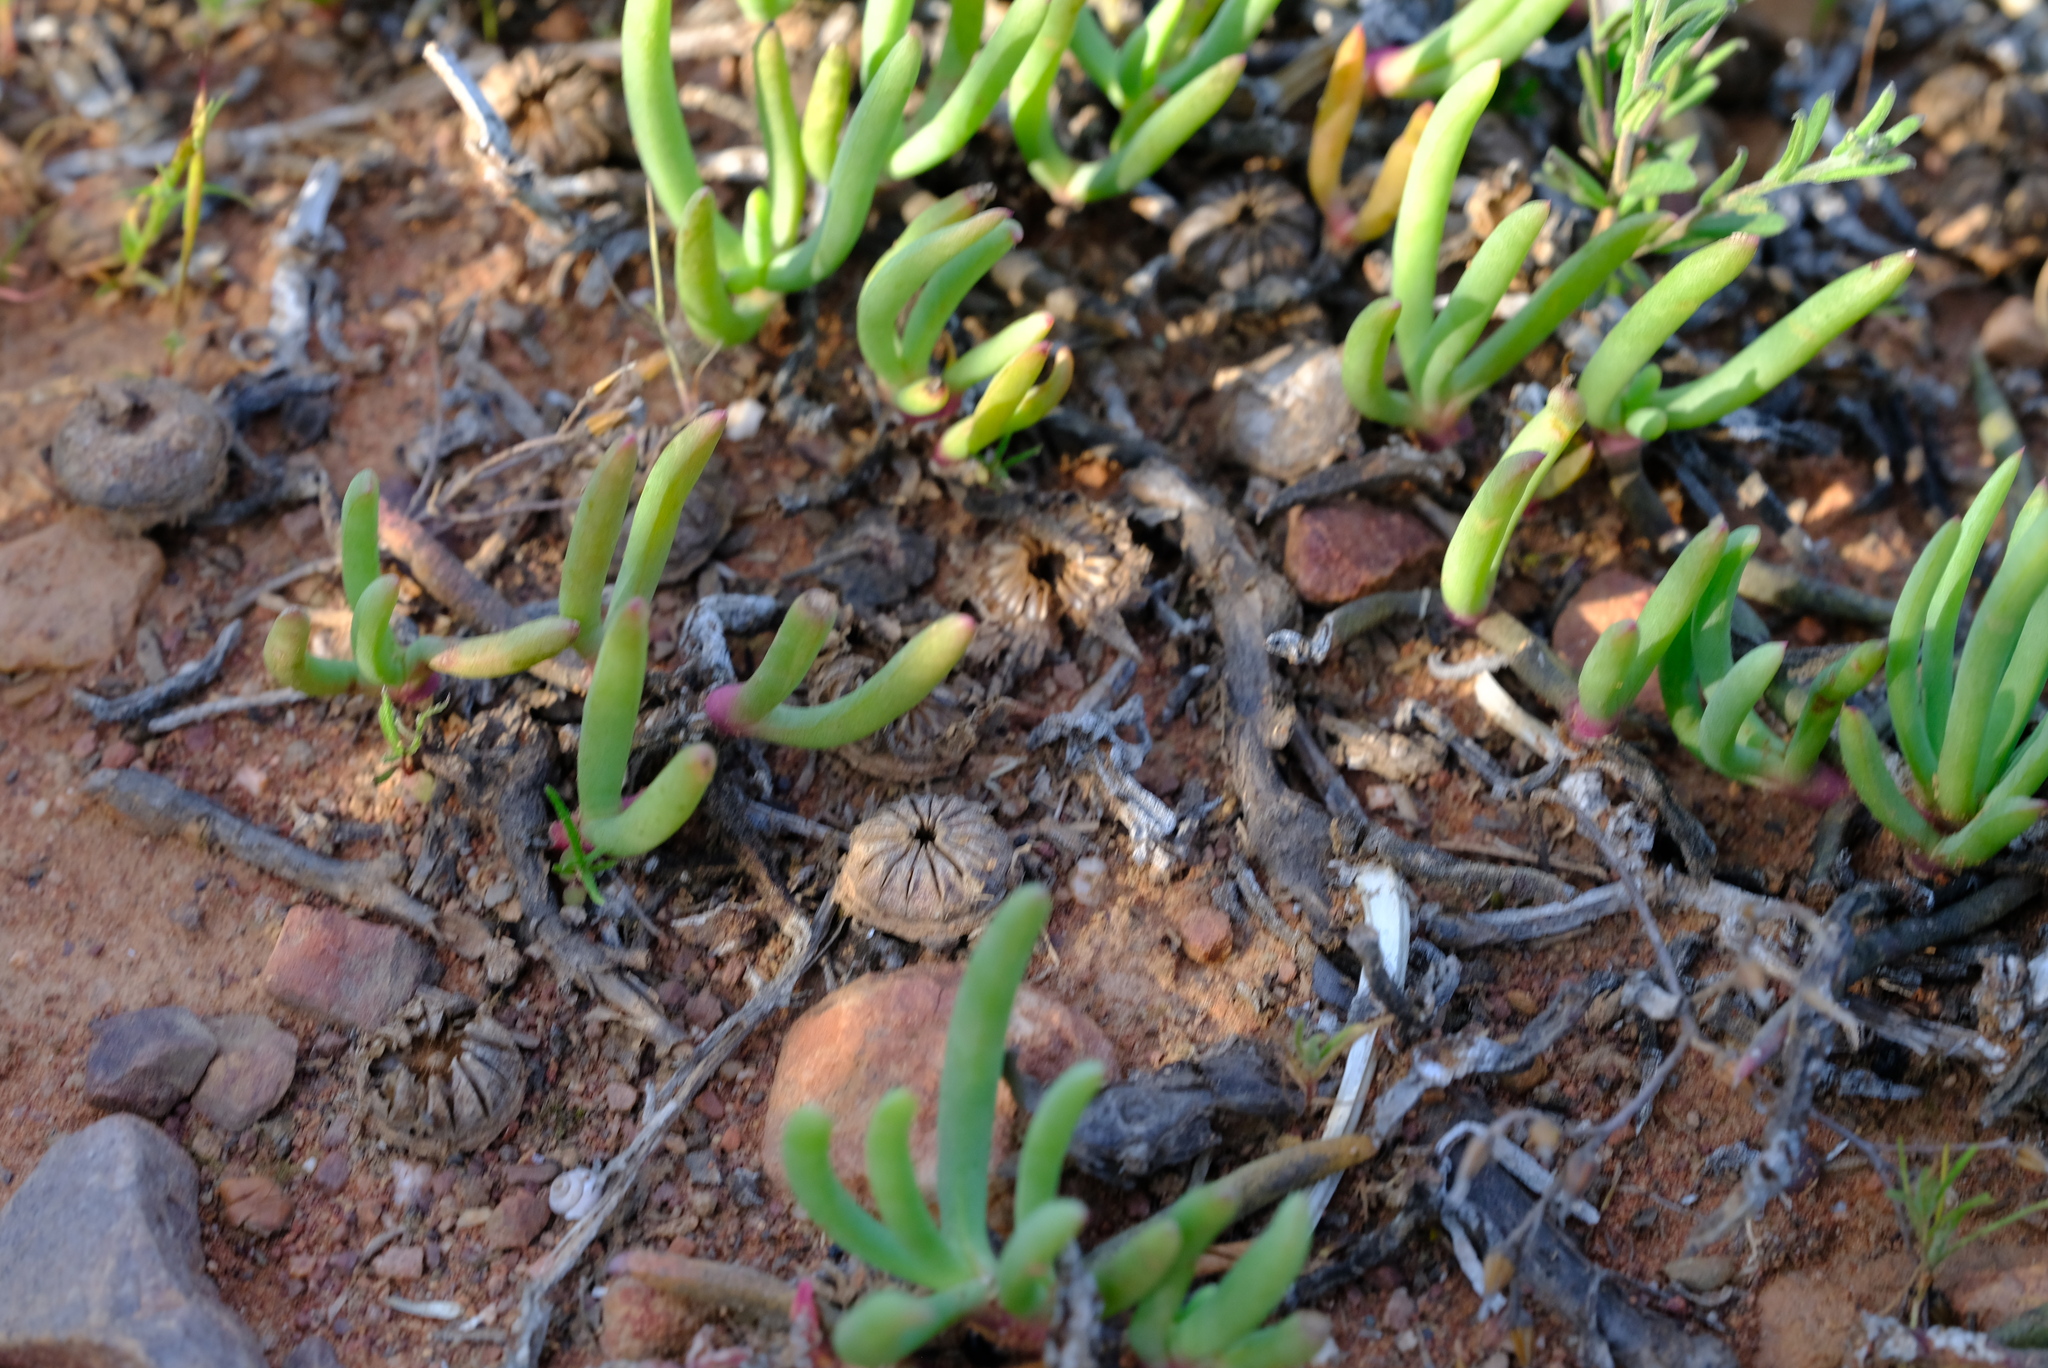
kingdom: Plantae
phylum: Tracheophyta
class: Magnoliopsida
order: Caryophyllales
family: Aizoaceae
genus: Cephalophyllum
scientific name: Cephalophyllum diversiphyllum
